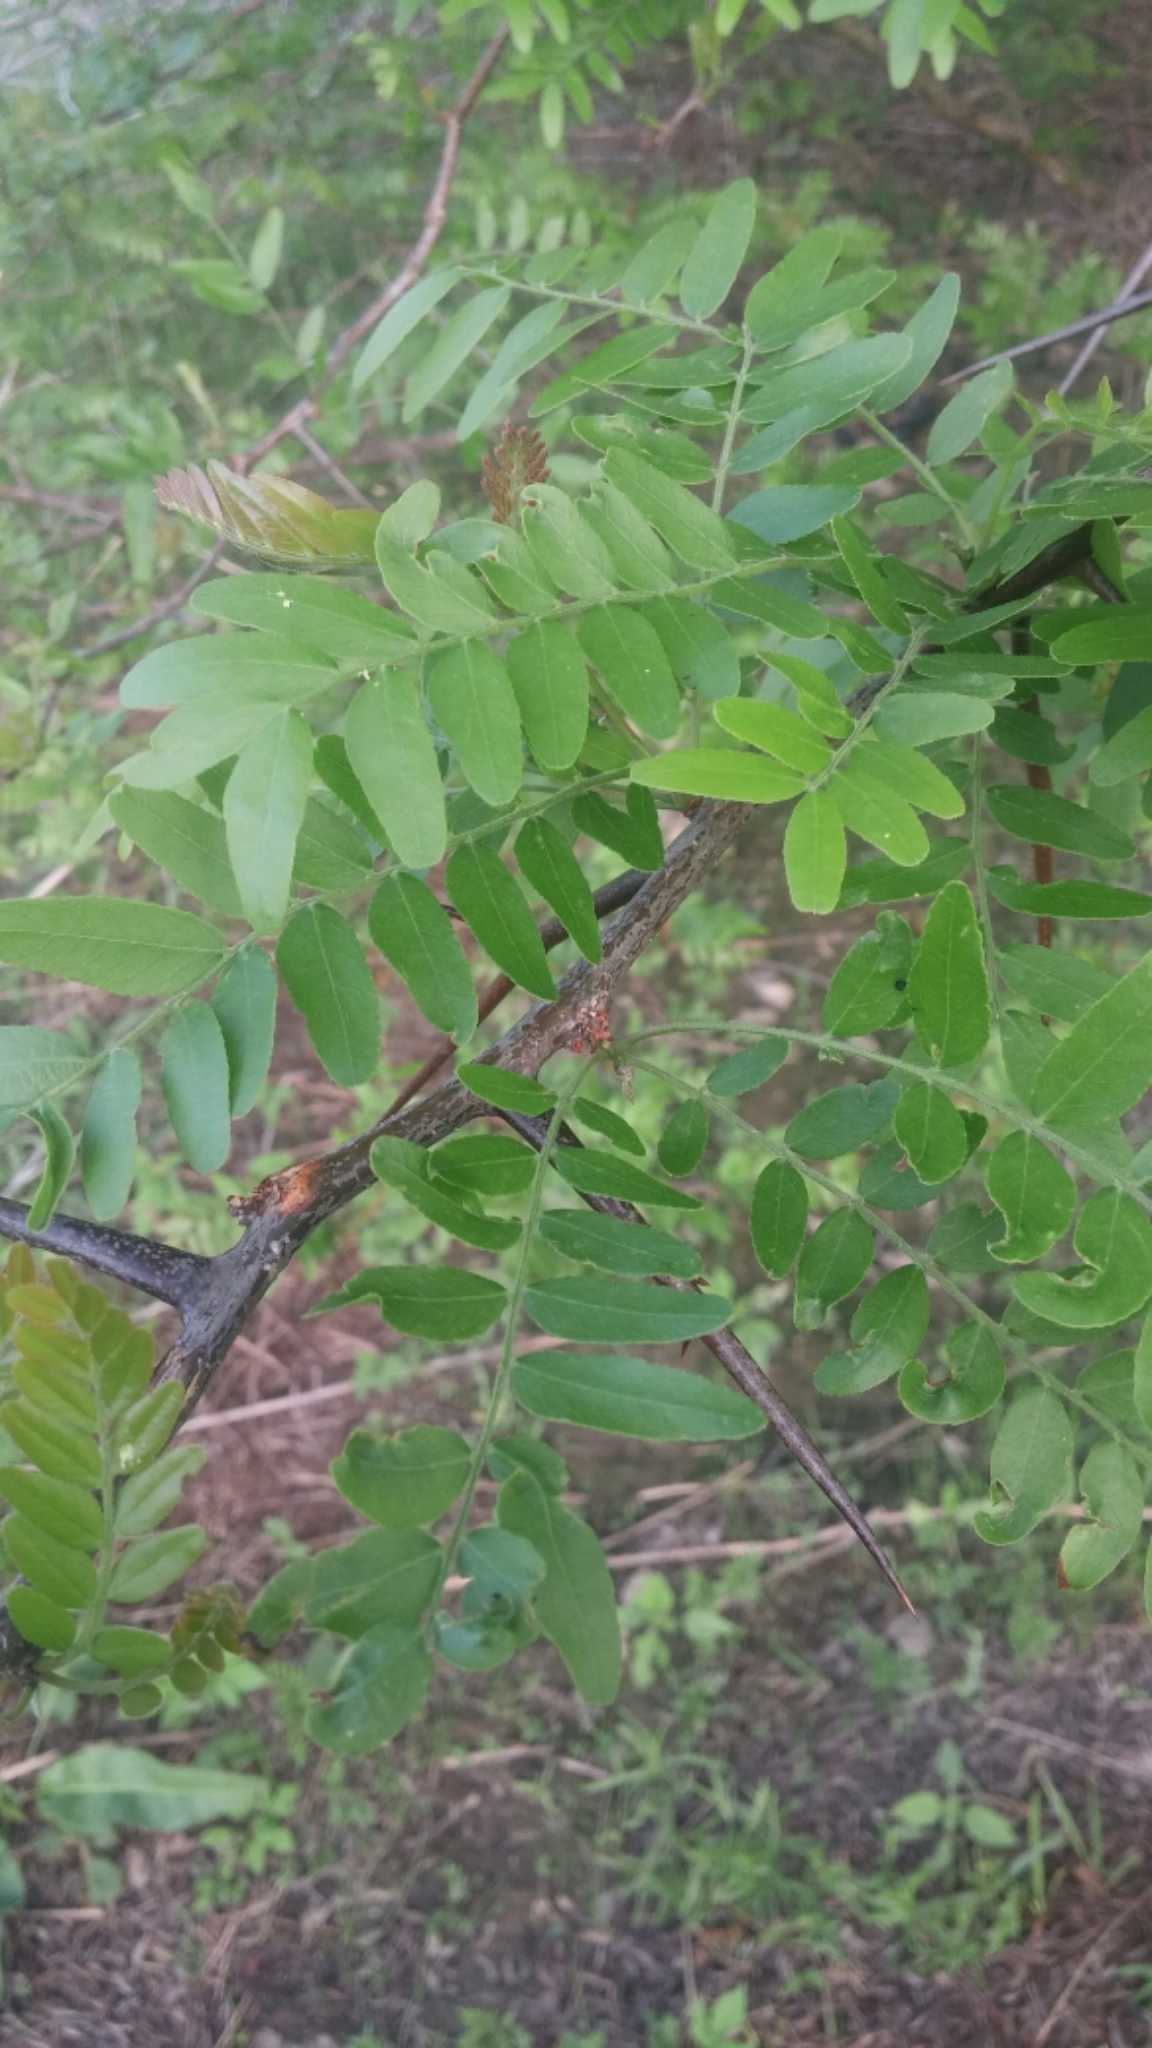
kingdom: Plantae
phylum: Tracheophyta
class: Magnoliopsida
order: Fabales
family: Fabaceae
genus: Gleditsia
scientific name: Gleditsia triacanthos
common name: Common honeylocust
